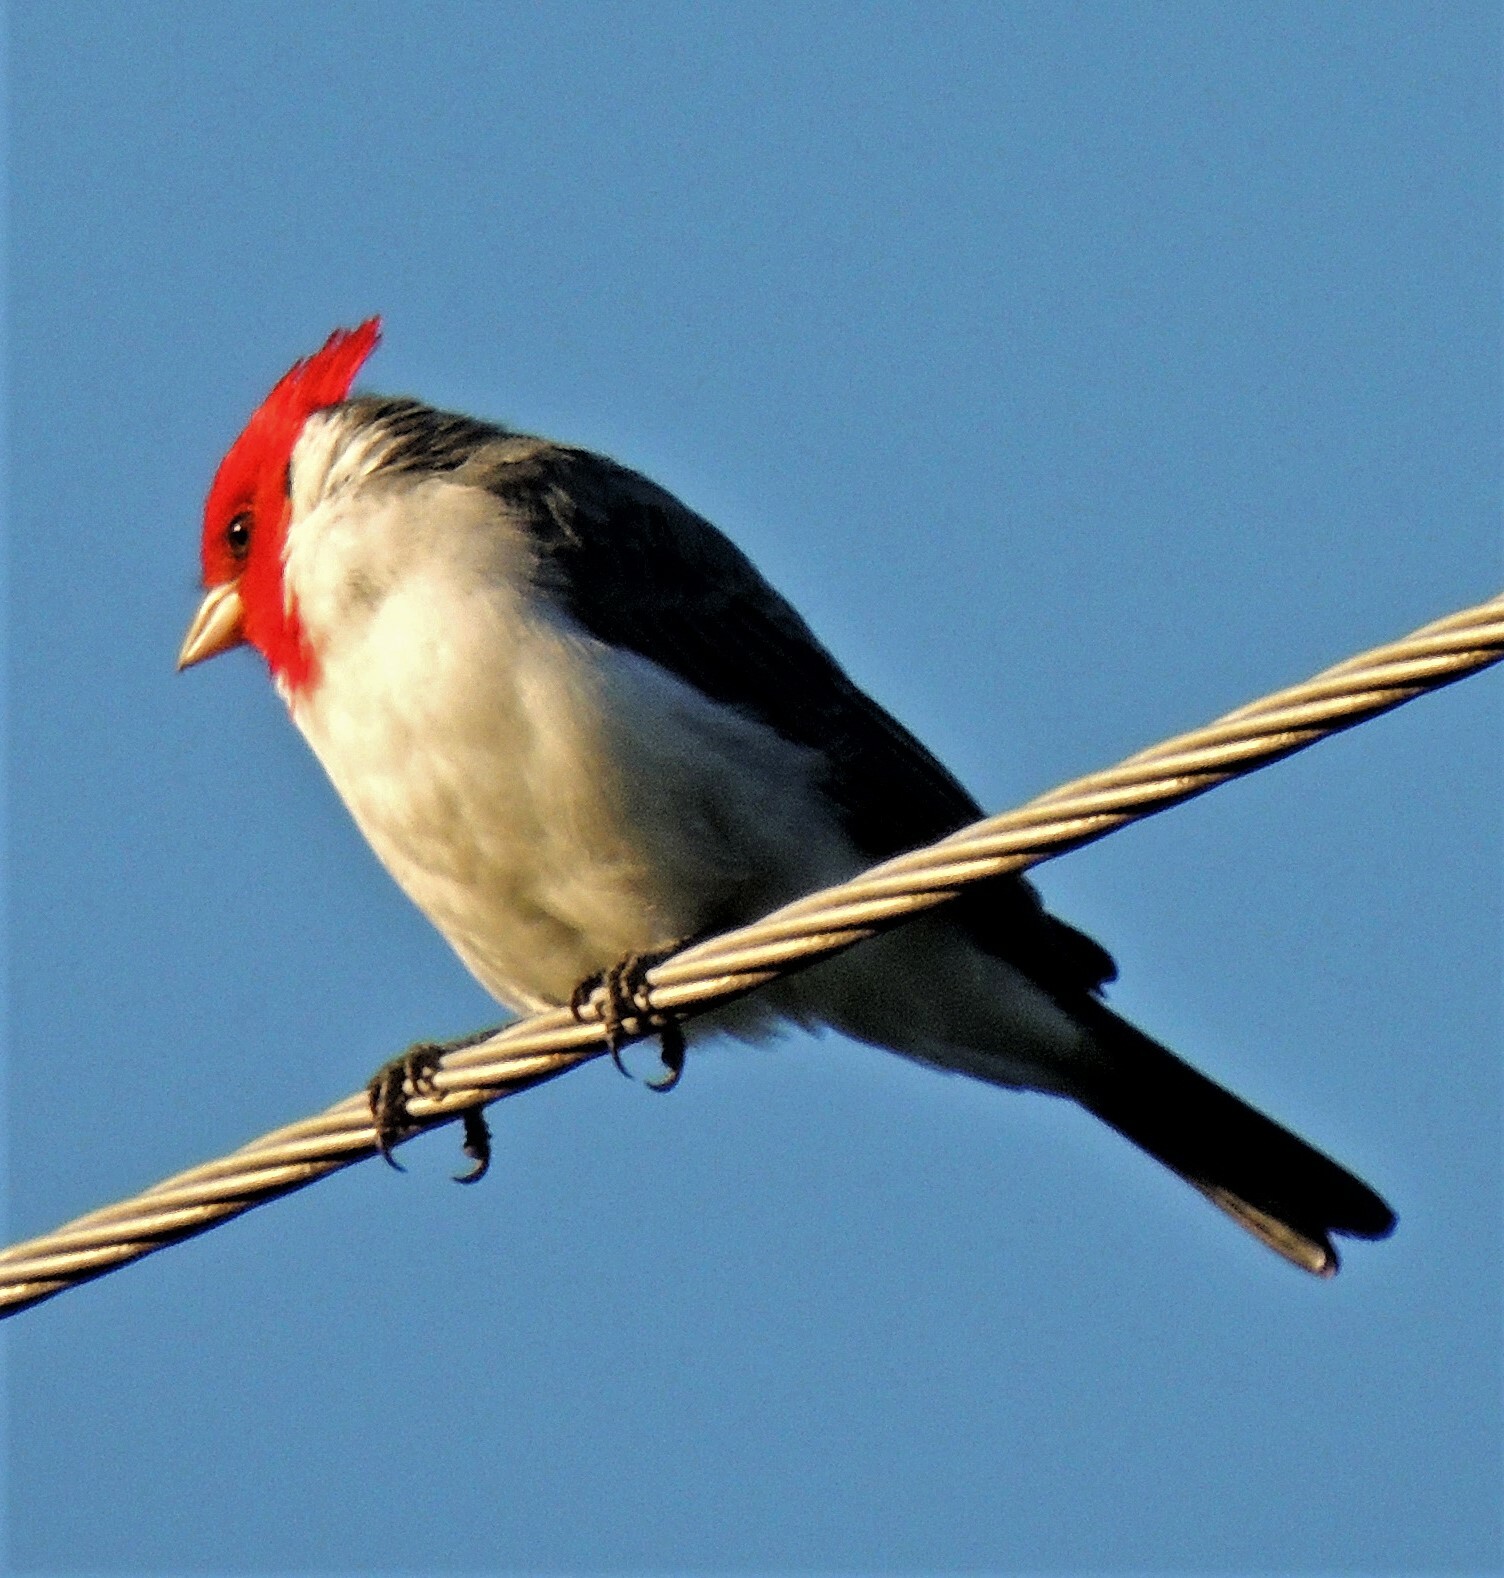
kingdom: Animalia
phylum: Chordata
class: Aves
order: Passeriformes
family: Thraupidae
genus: Paroaria
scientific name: Paroaria coronata
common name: Red-crested cardinal
